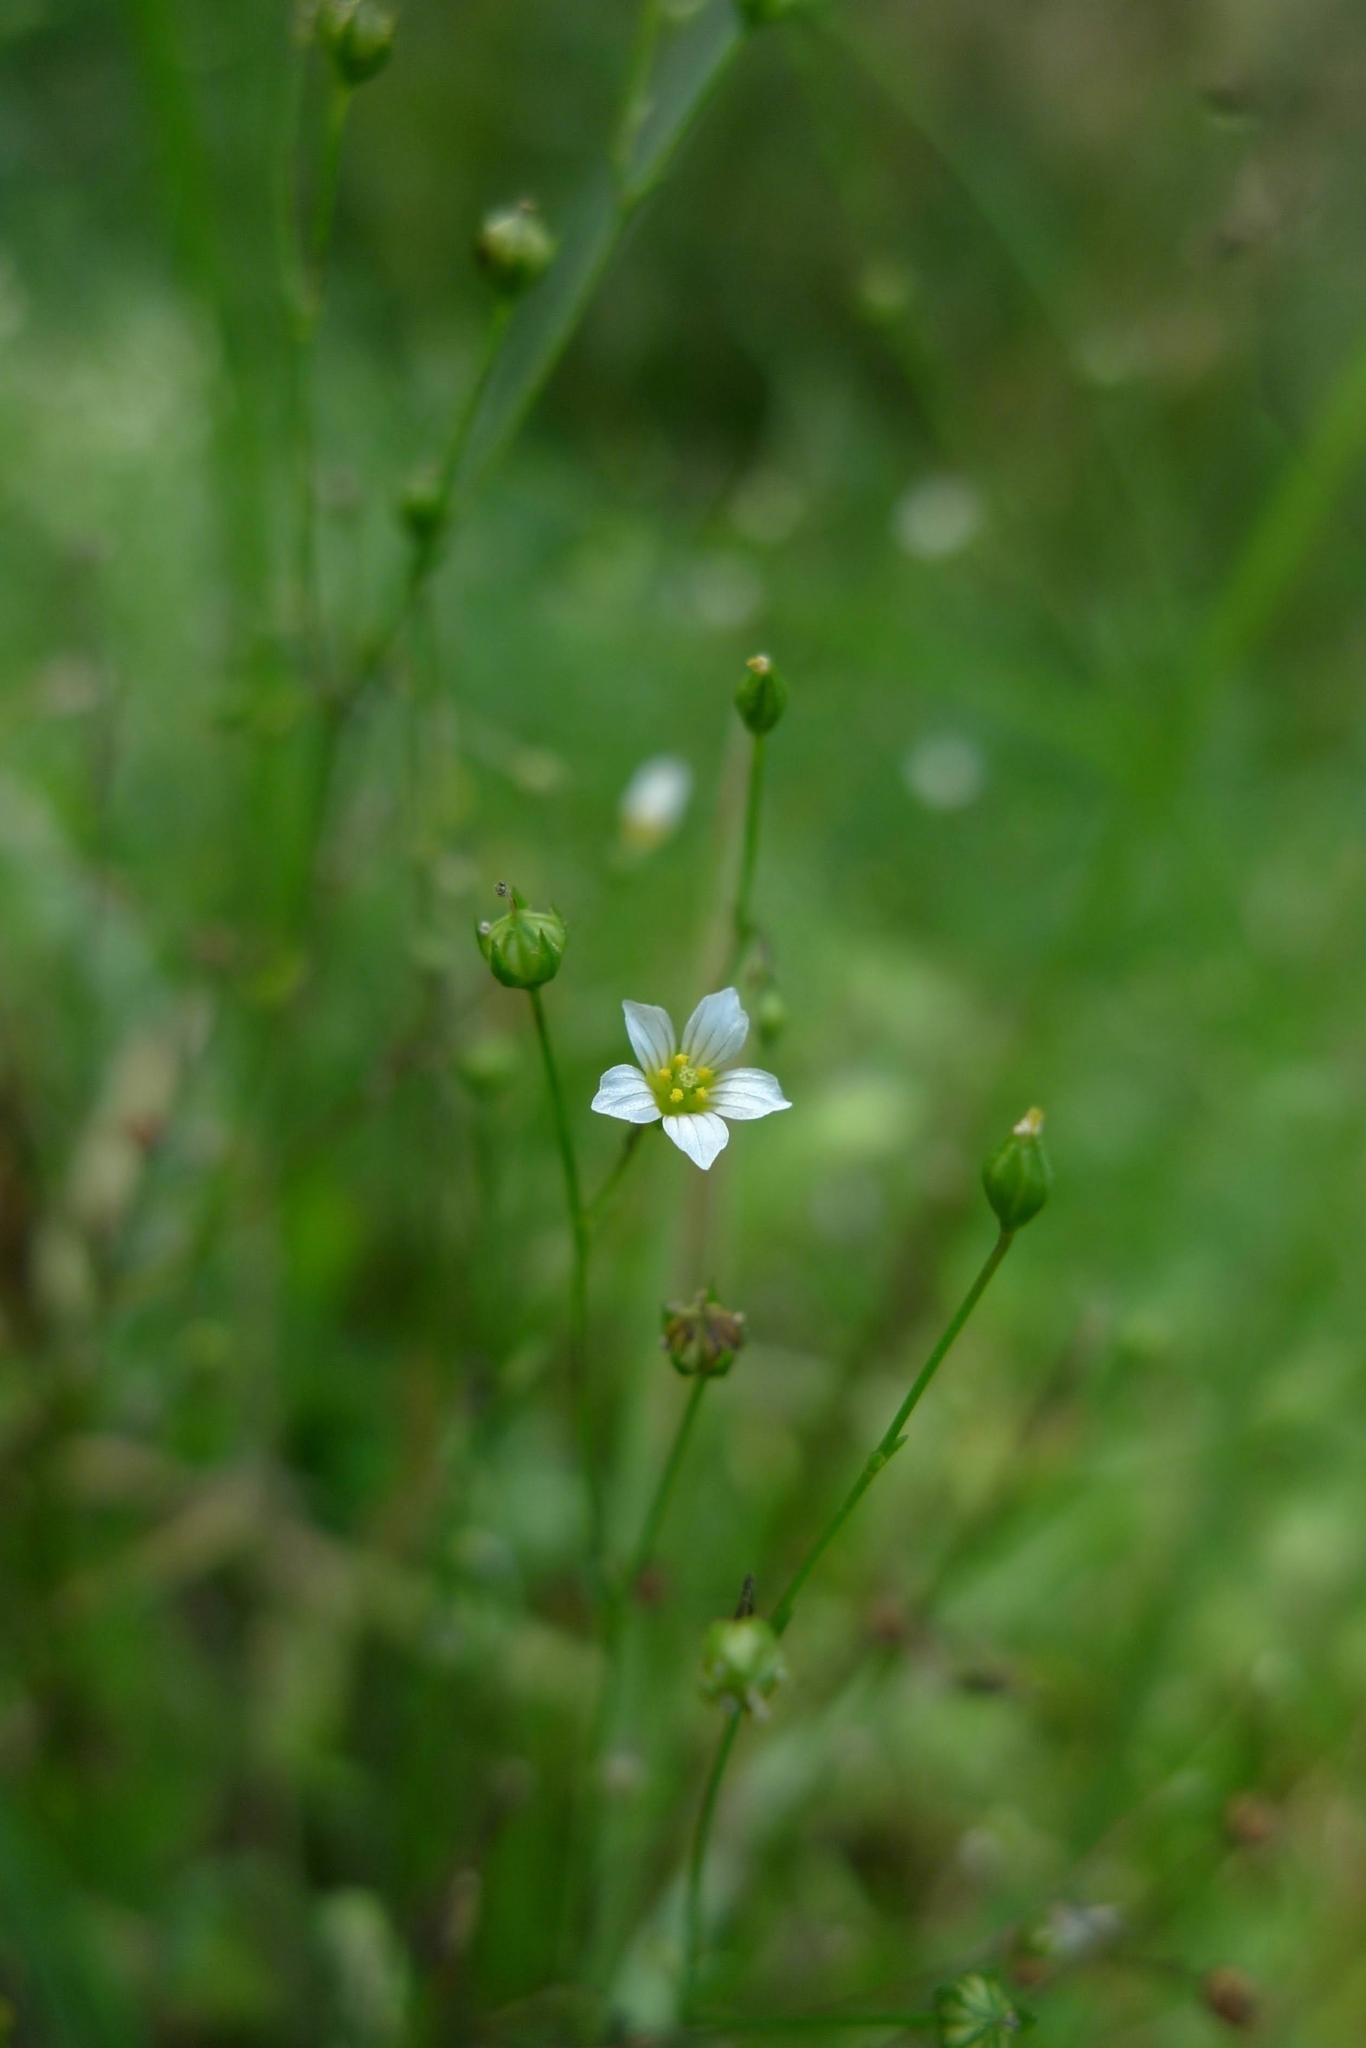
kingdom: Plantae
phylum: Tracheophyta
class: Magnoliopsida
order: Malpighiales
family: Linaceae
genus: Linum
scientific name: Linum catharticum
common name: Fairy flax
